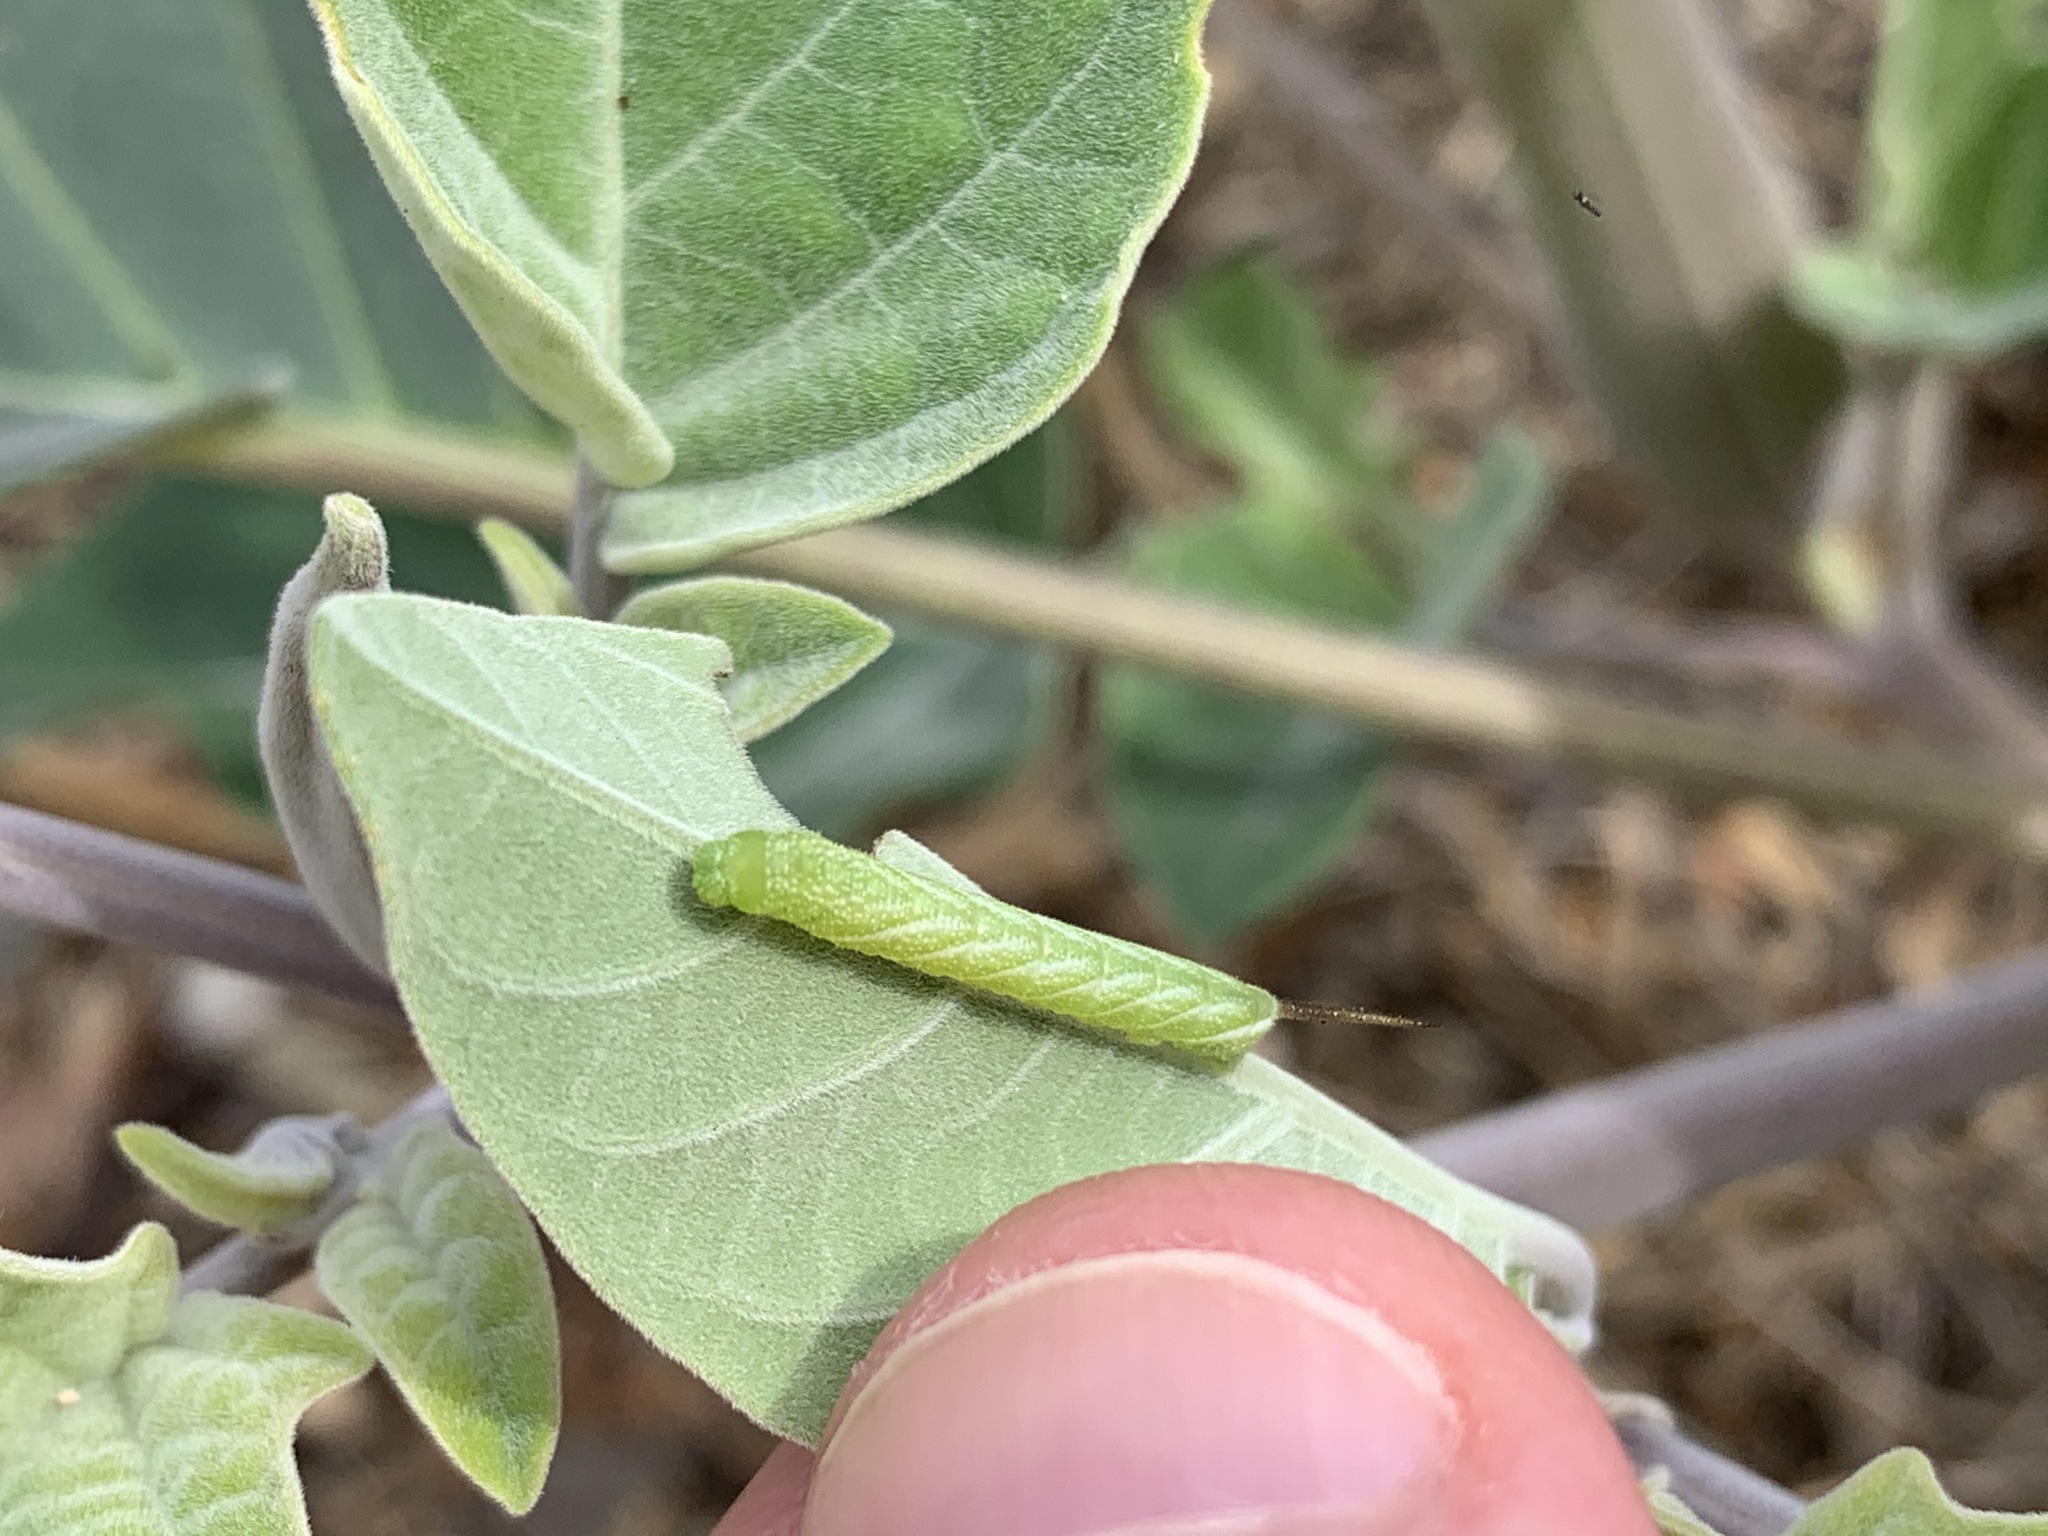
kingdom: Animalia
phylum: Arthropoda
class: Insecta
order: Lepidoptera
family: Sphingidae
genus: Manduca
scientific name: Manduca sexta
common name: Carolina sphinx
